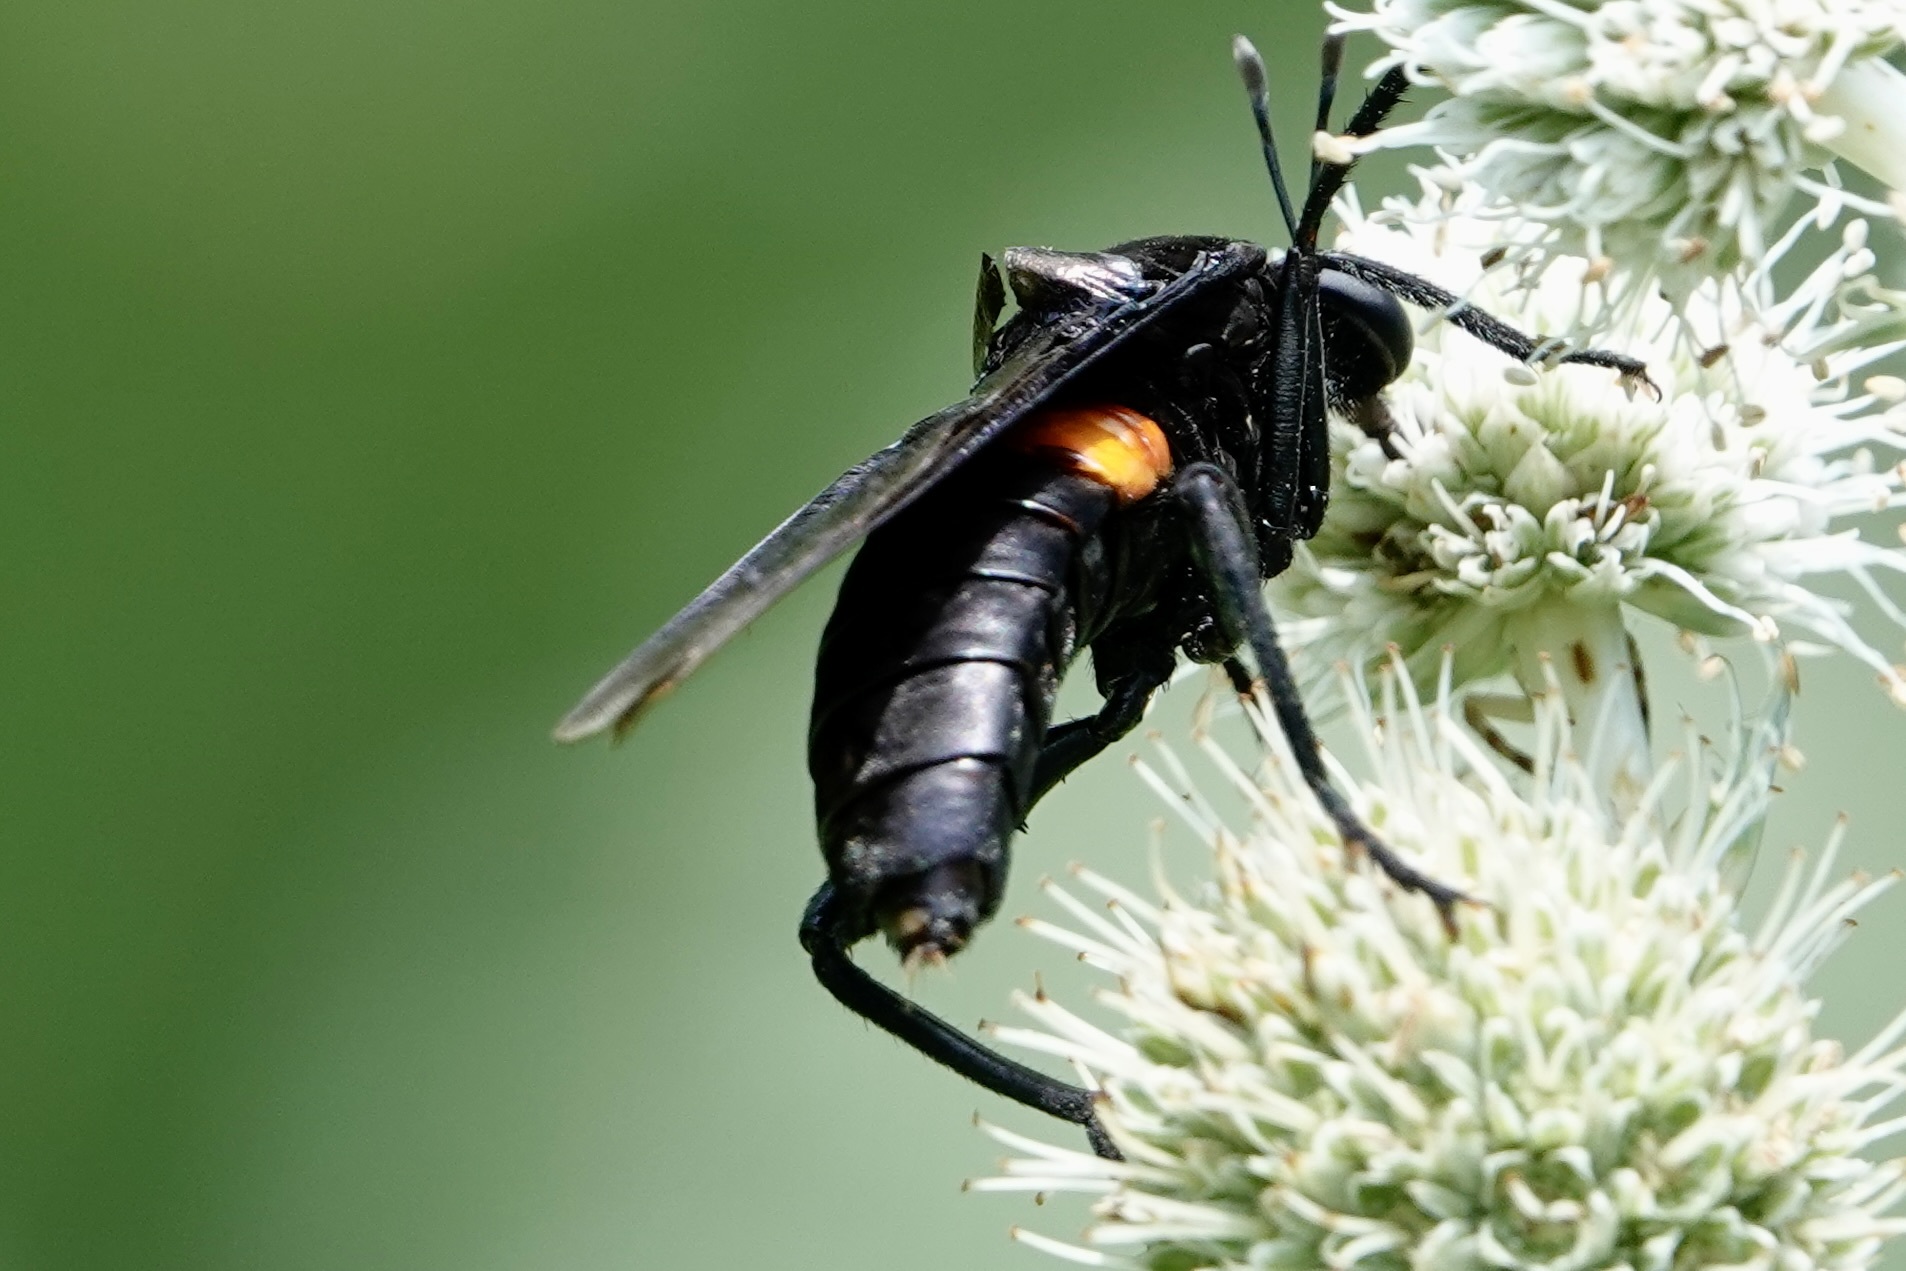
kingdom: Animalia
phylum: Arthropoda
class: Insecta
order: Diptera
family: Mydidae
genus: Mydas
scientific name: Mydas clavatus
